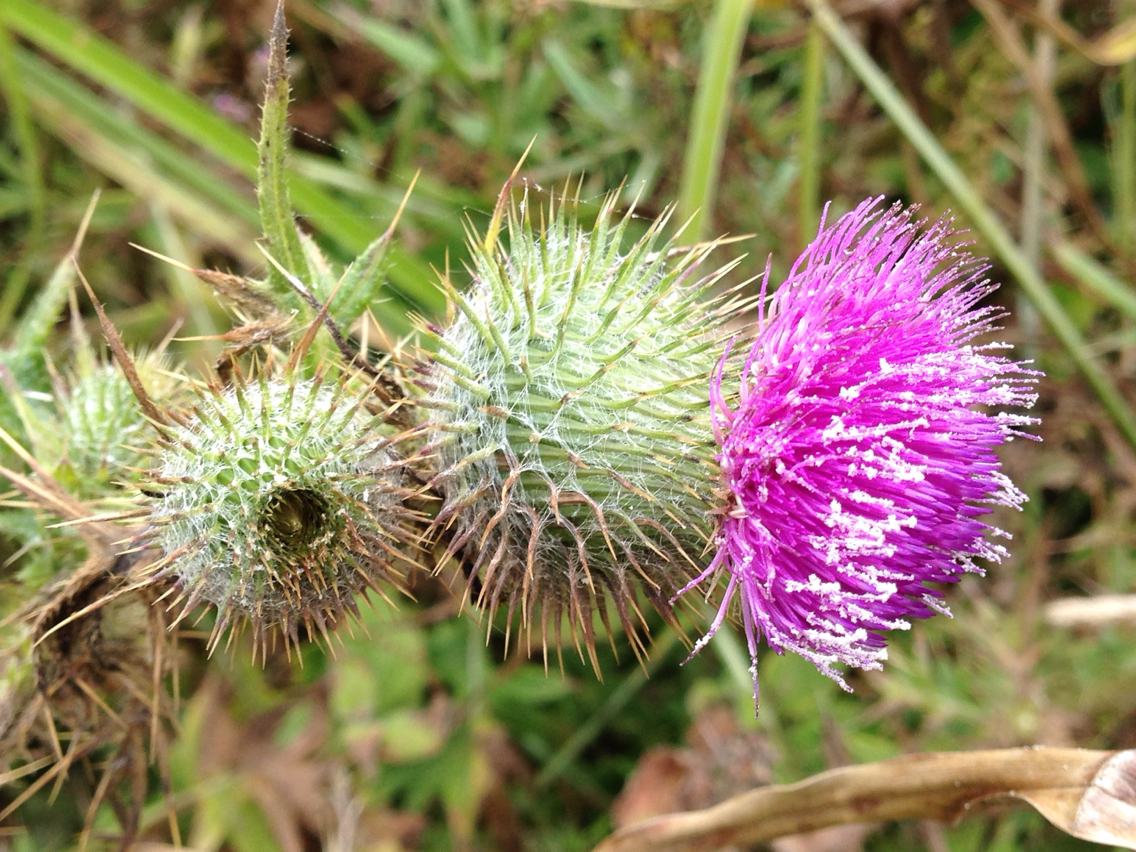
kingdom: Plantae
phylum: Tracheophyta
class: Magnoliopsida
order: Asterales
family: Asteraceae
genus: Cirsium
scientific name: Cirsium vulgare
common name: Bull thistle
